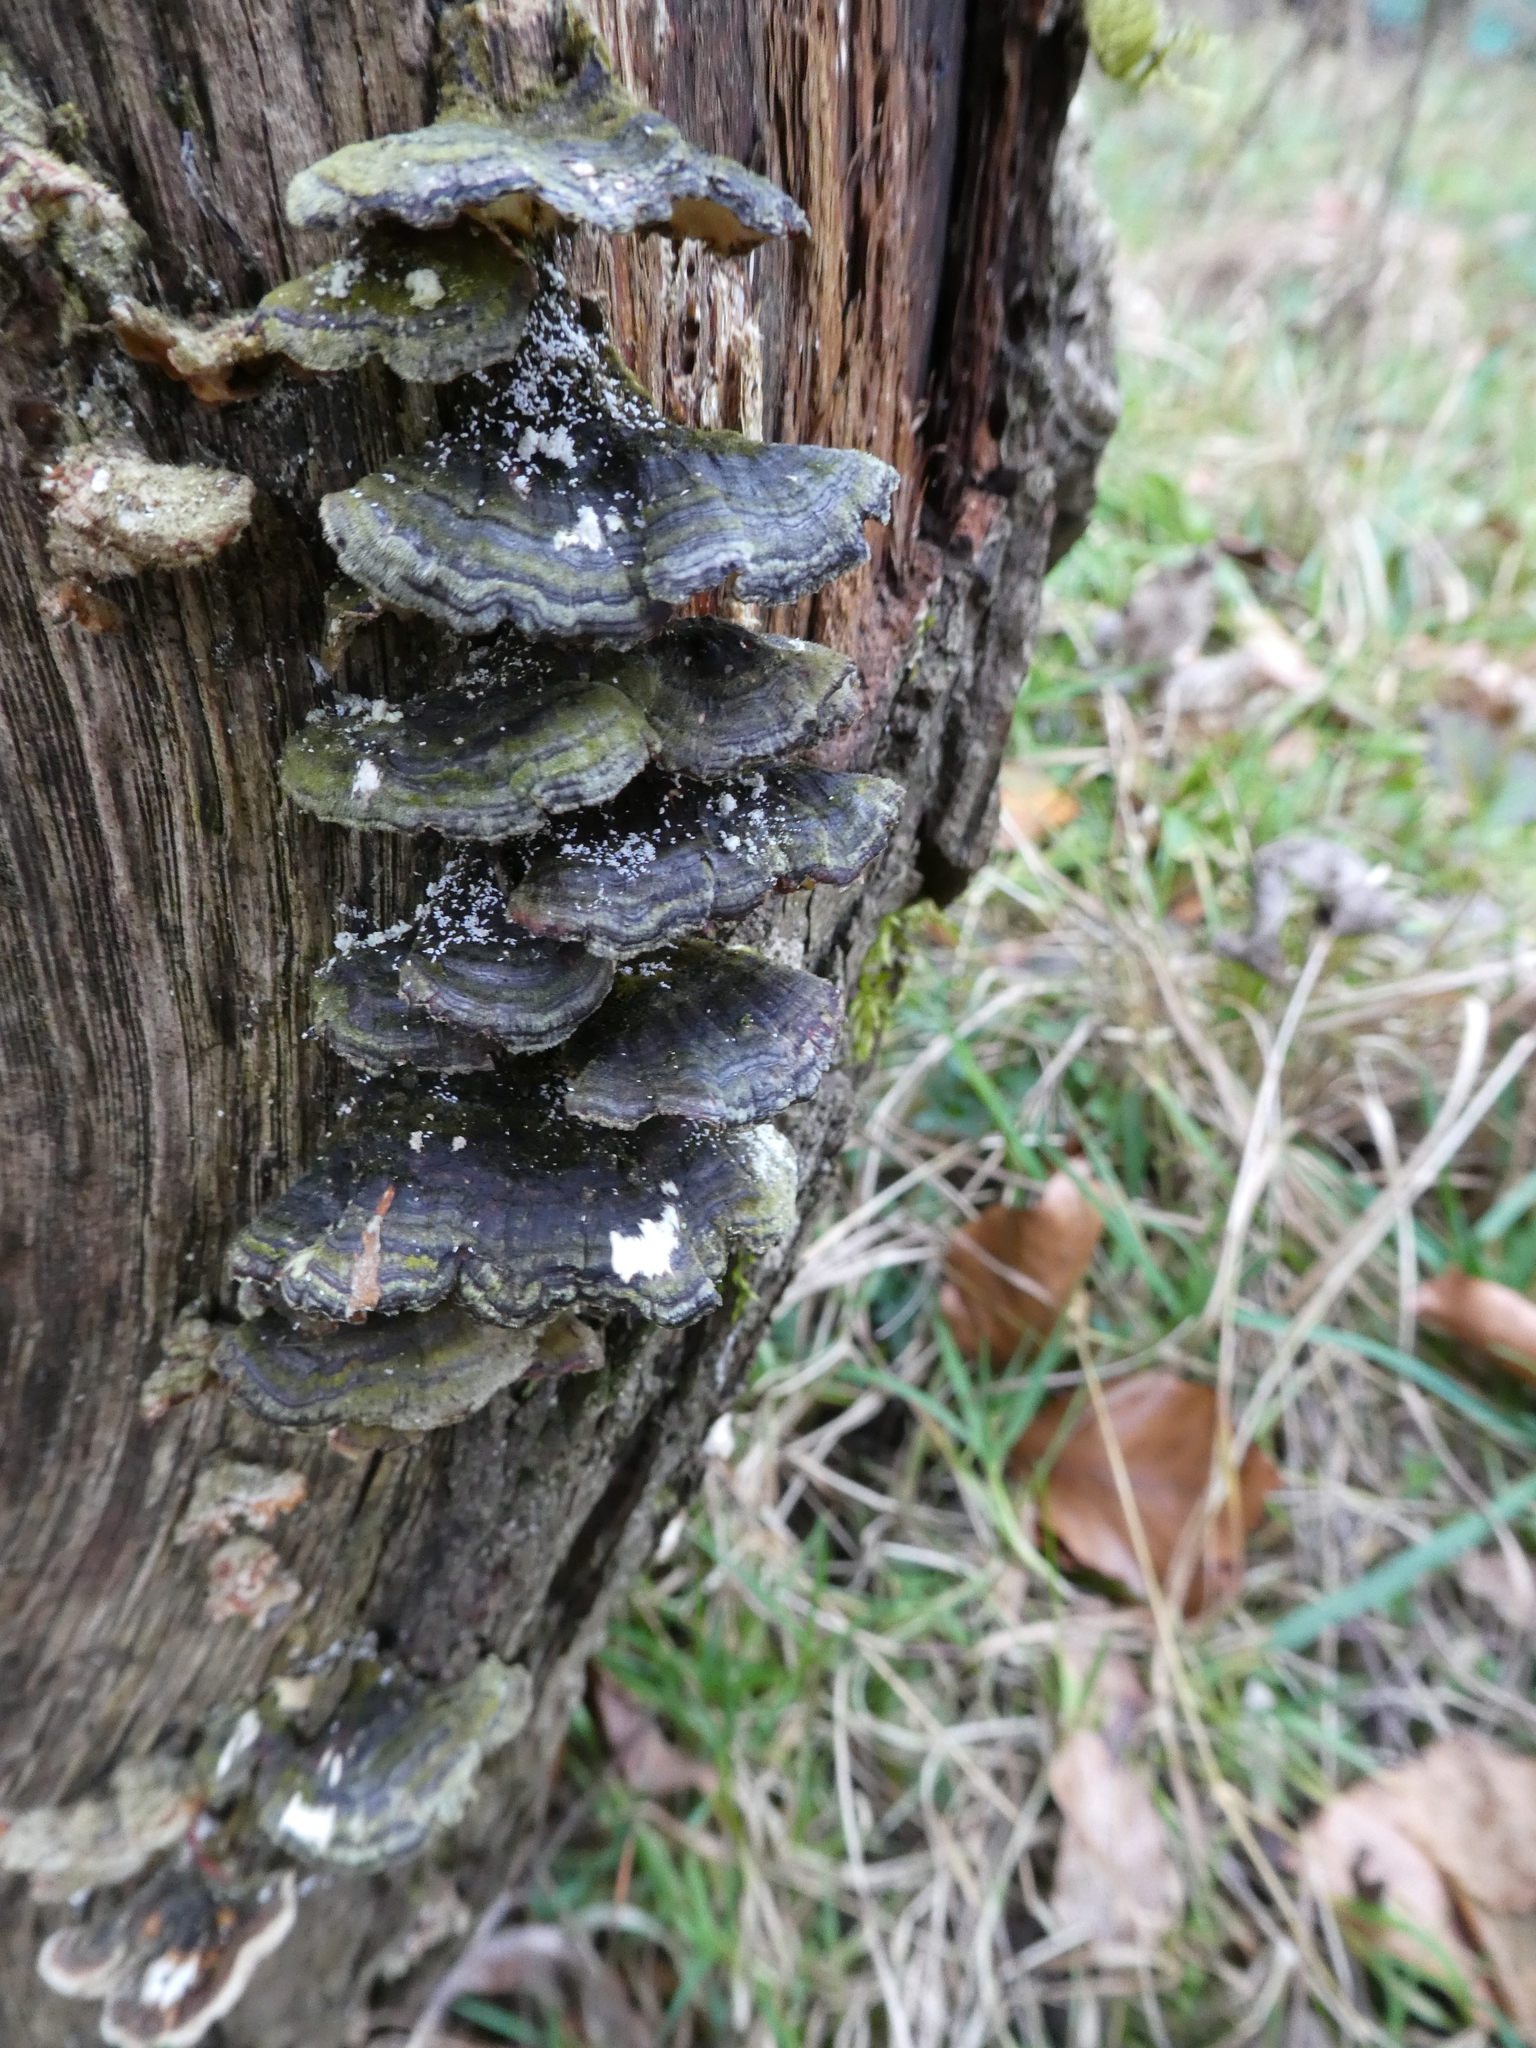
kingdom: Fungi
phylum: Basidiomycota
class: Agaricomycetes
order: Polyporales
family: Polyporaceae
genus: Trametes
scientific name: Trametes versicolor
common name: Turkeytail
